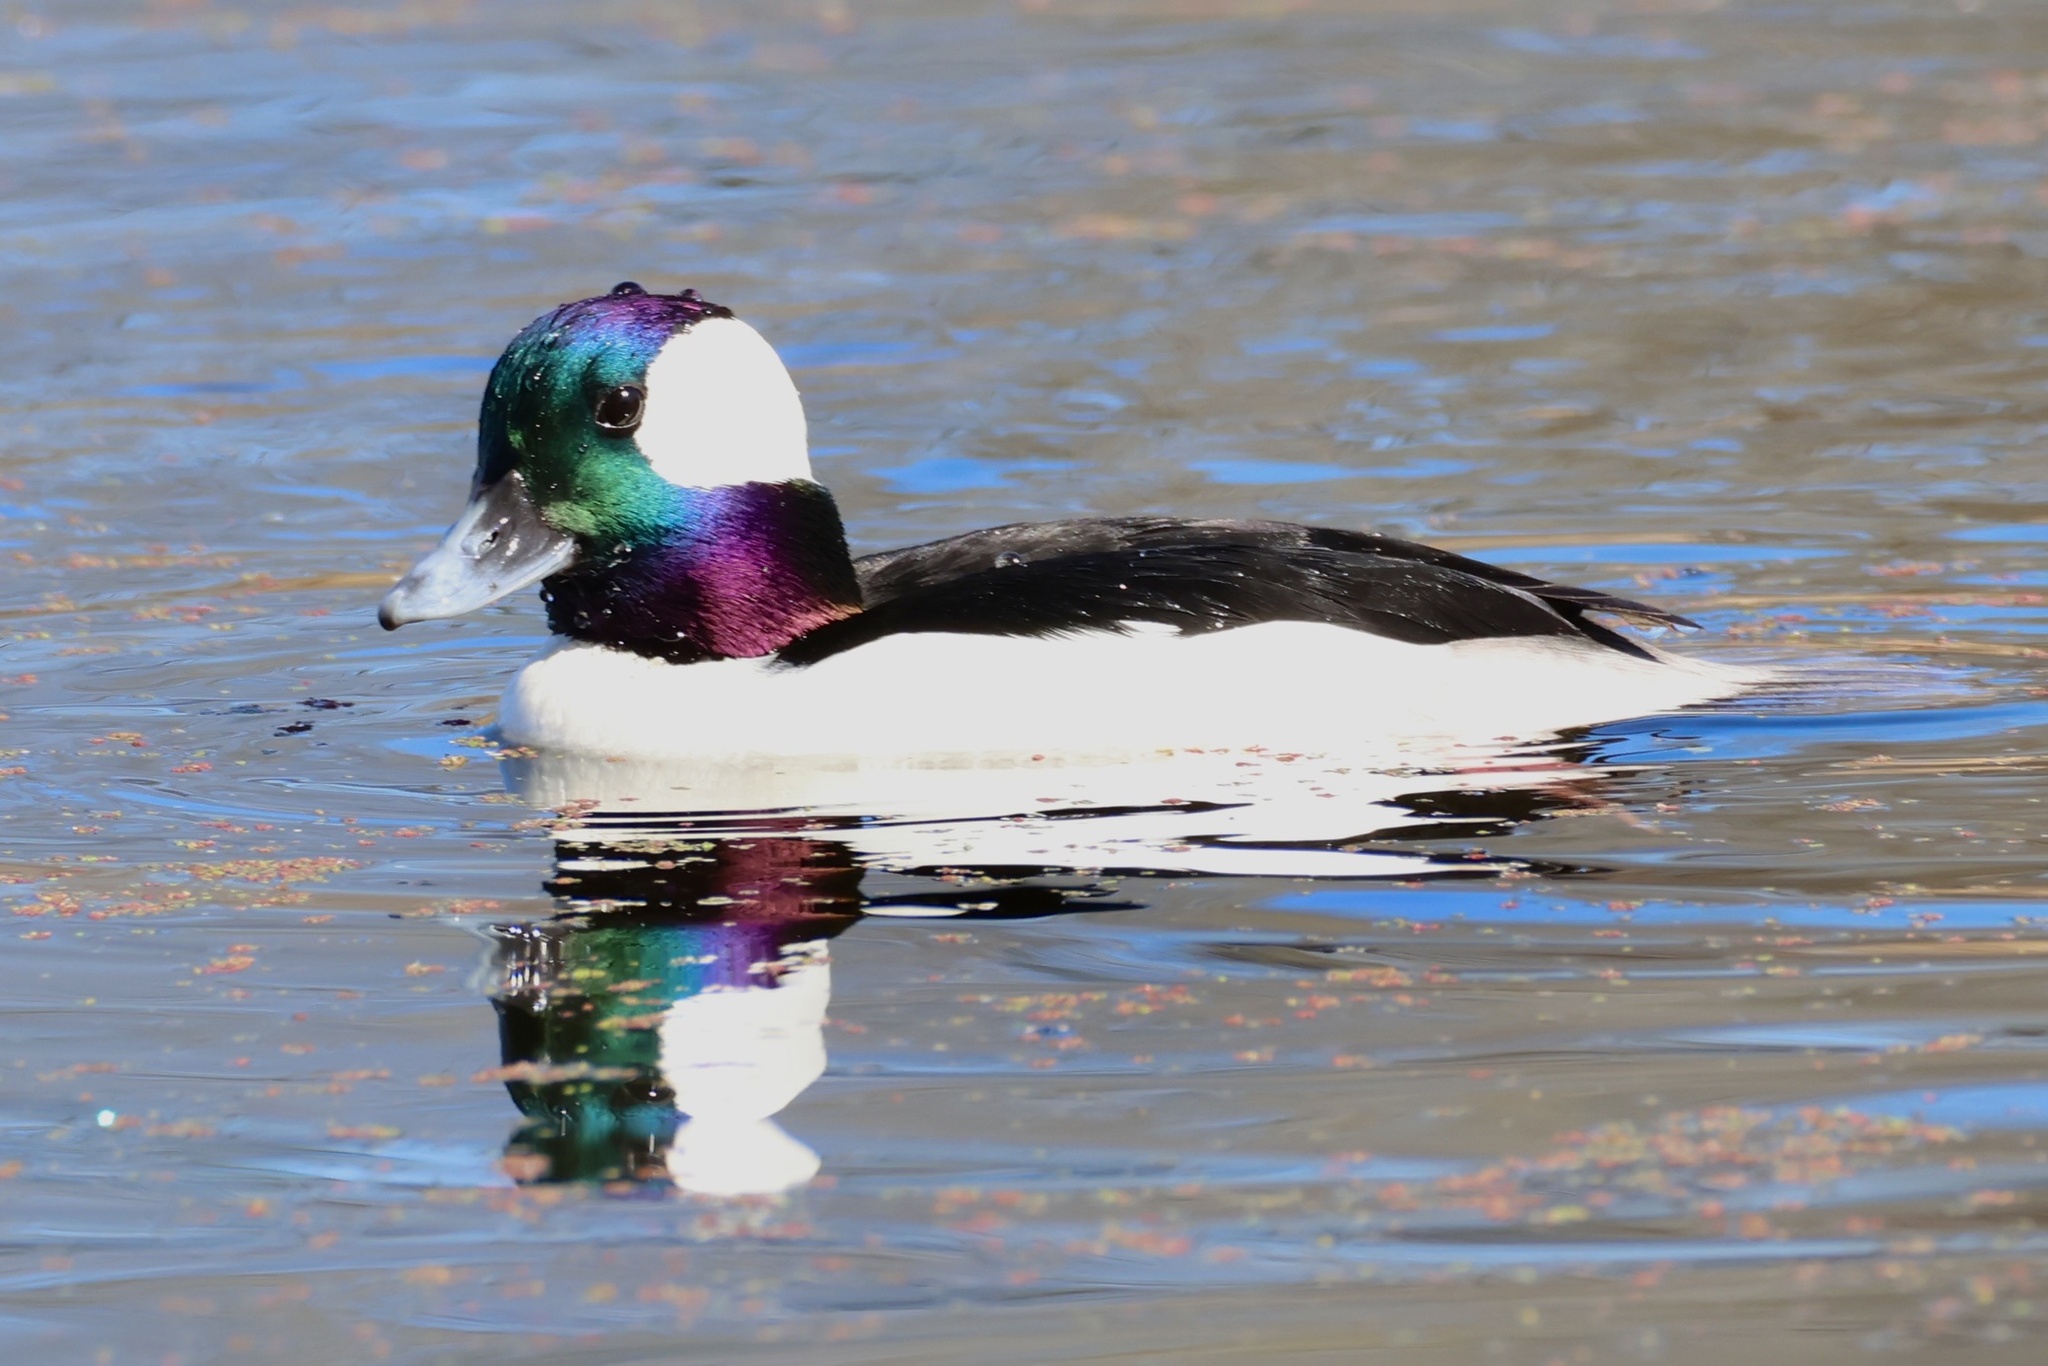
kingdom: Animalia
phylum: Chordata
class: Aves
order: Anseriformes
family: Anatidae
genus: Bucephala
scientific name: Bucephala albeola
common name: Bufflehead
